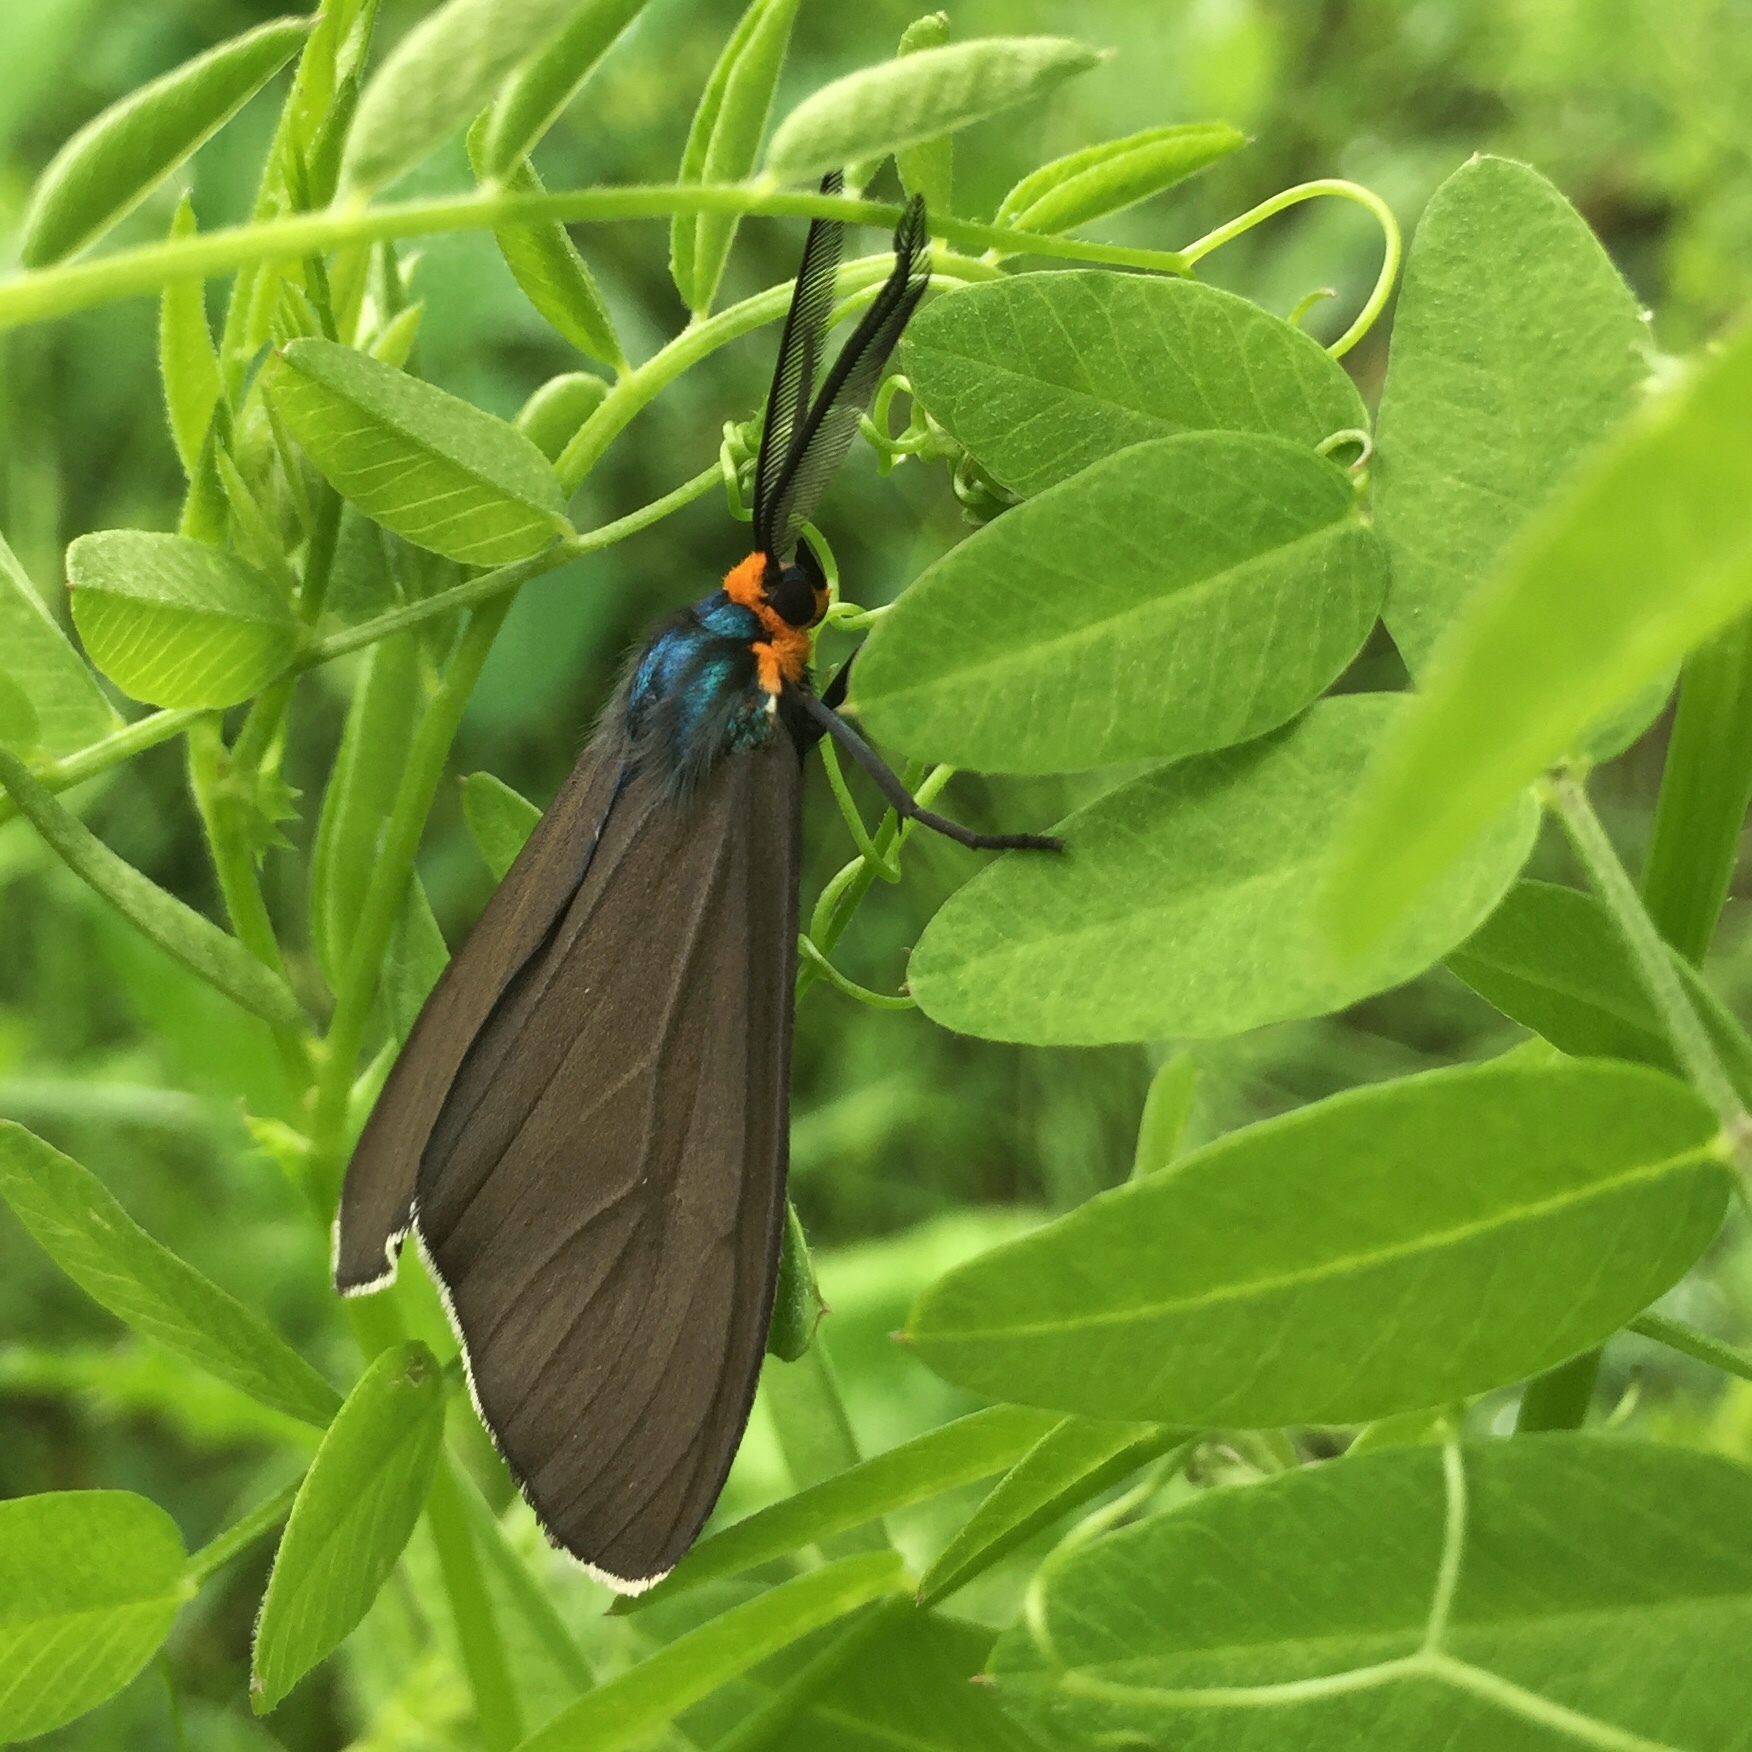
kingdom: Animalia
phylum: Arthropoda
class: Insecta
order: Lepidoptera
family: Erebidae
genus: Ctenucha
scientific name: Ctenucha virginica
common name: Virginia ctenucha moth
